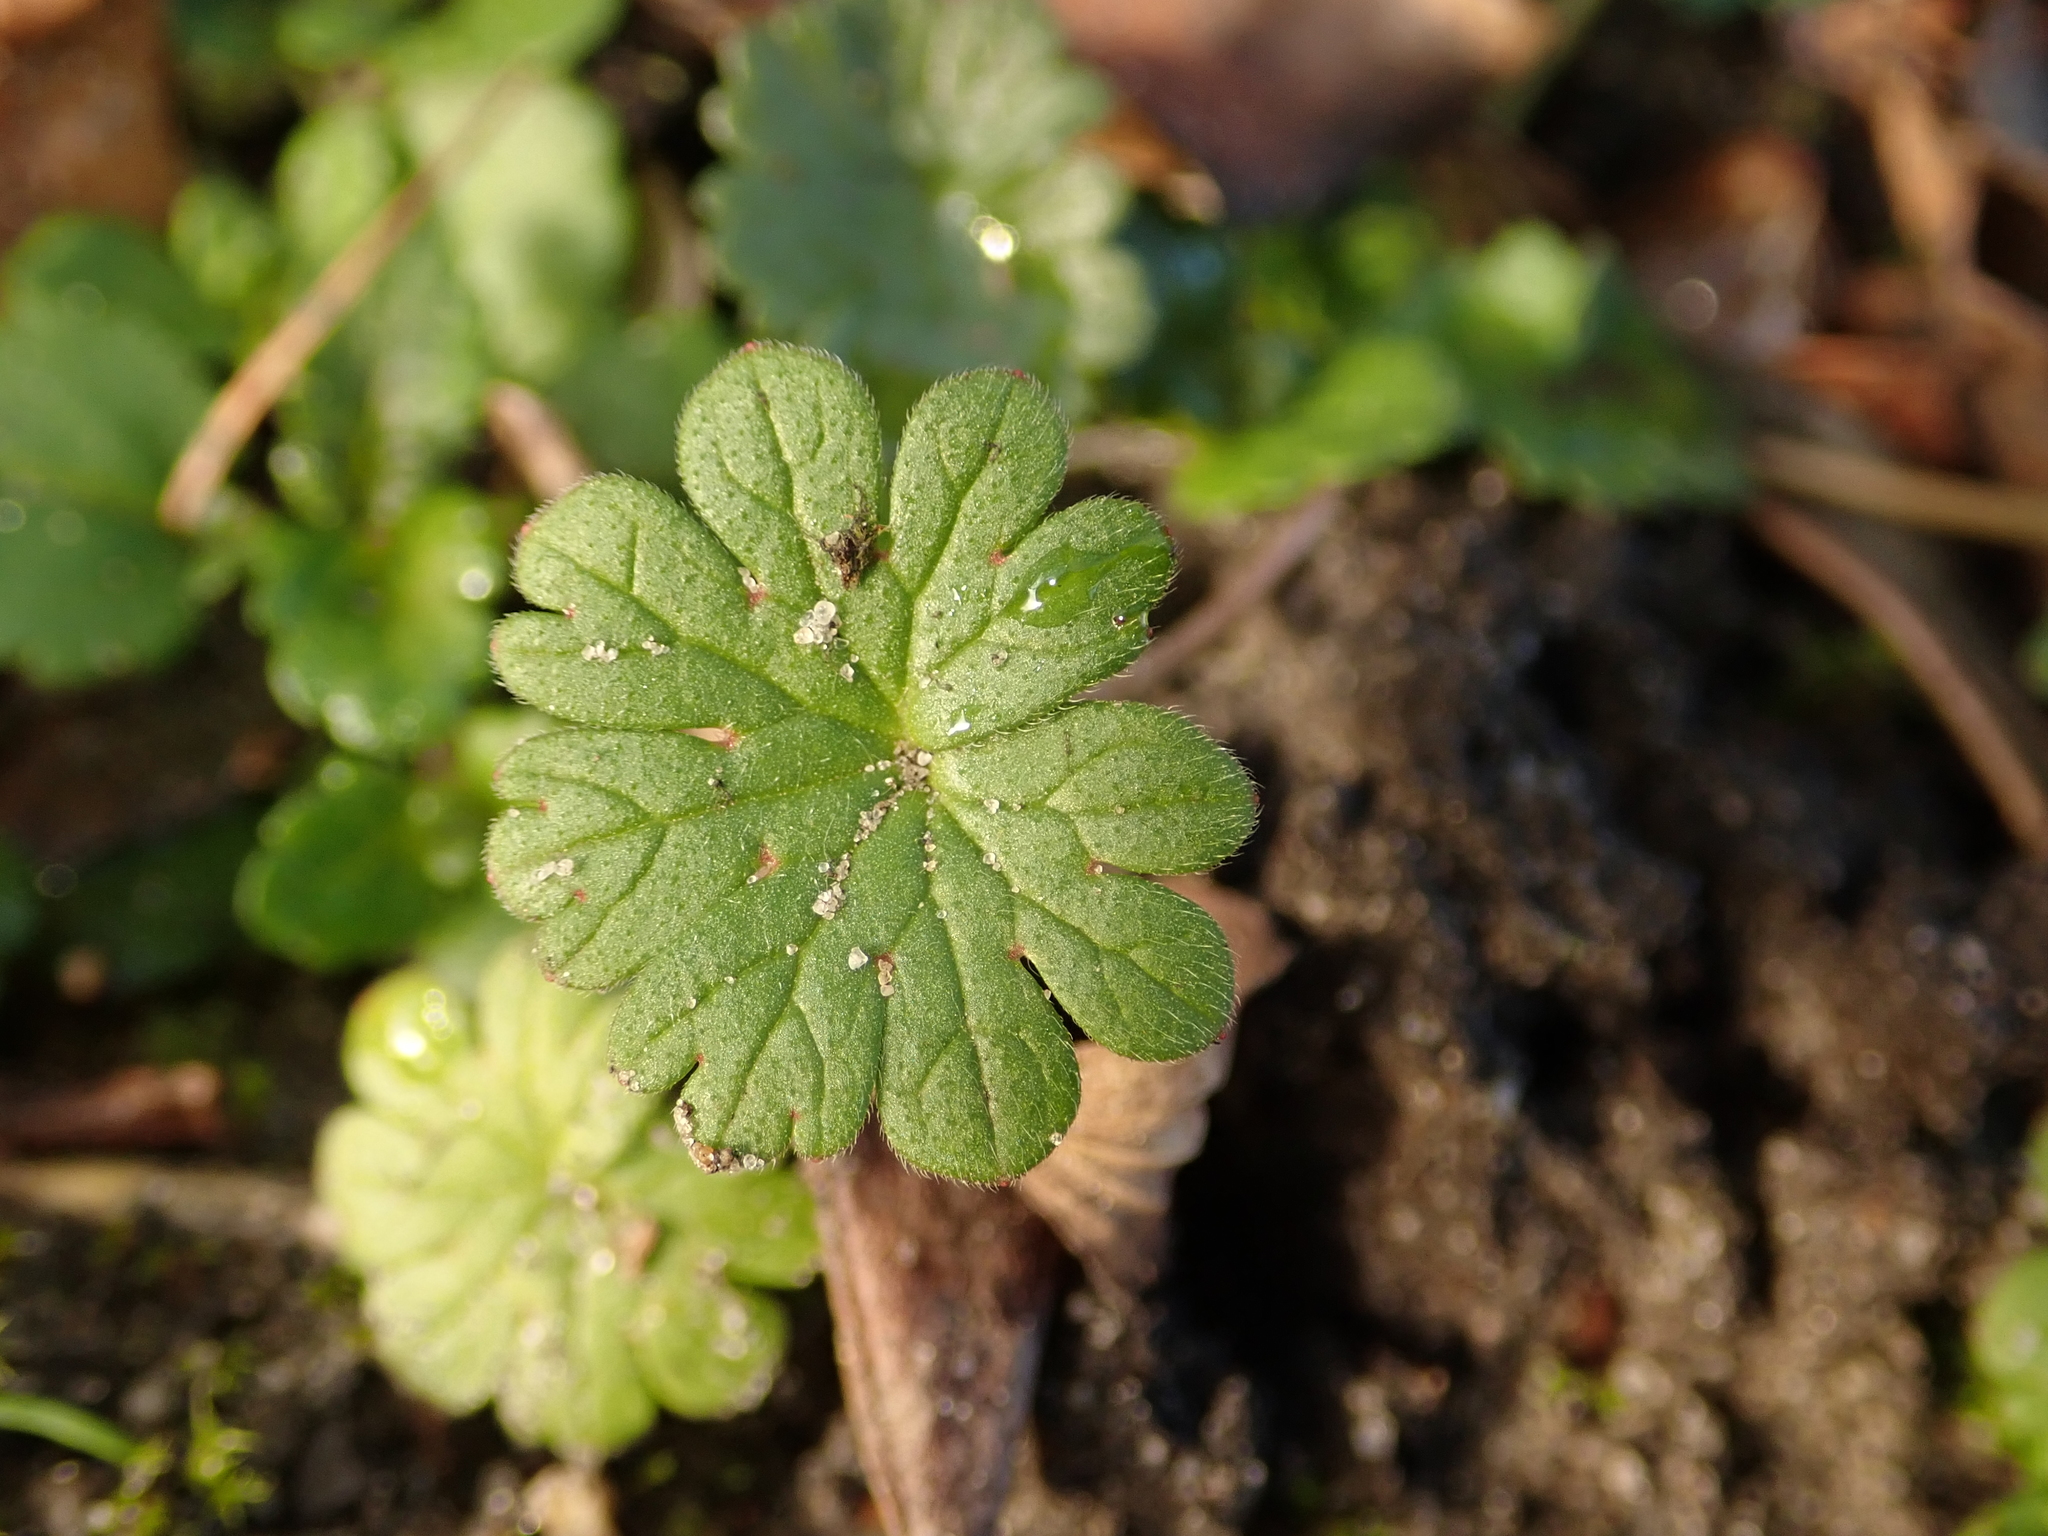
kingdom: Plantae
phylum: Tracheophyta
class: Magnoliopsida
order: Geraniales
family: Geraniaceae
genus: Geranium
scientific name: Geranium molle
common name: Dove's-foot crane's-bill
